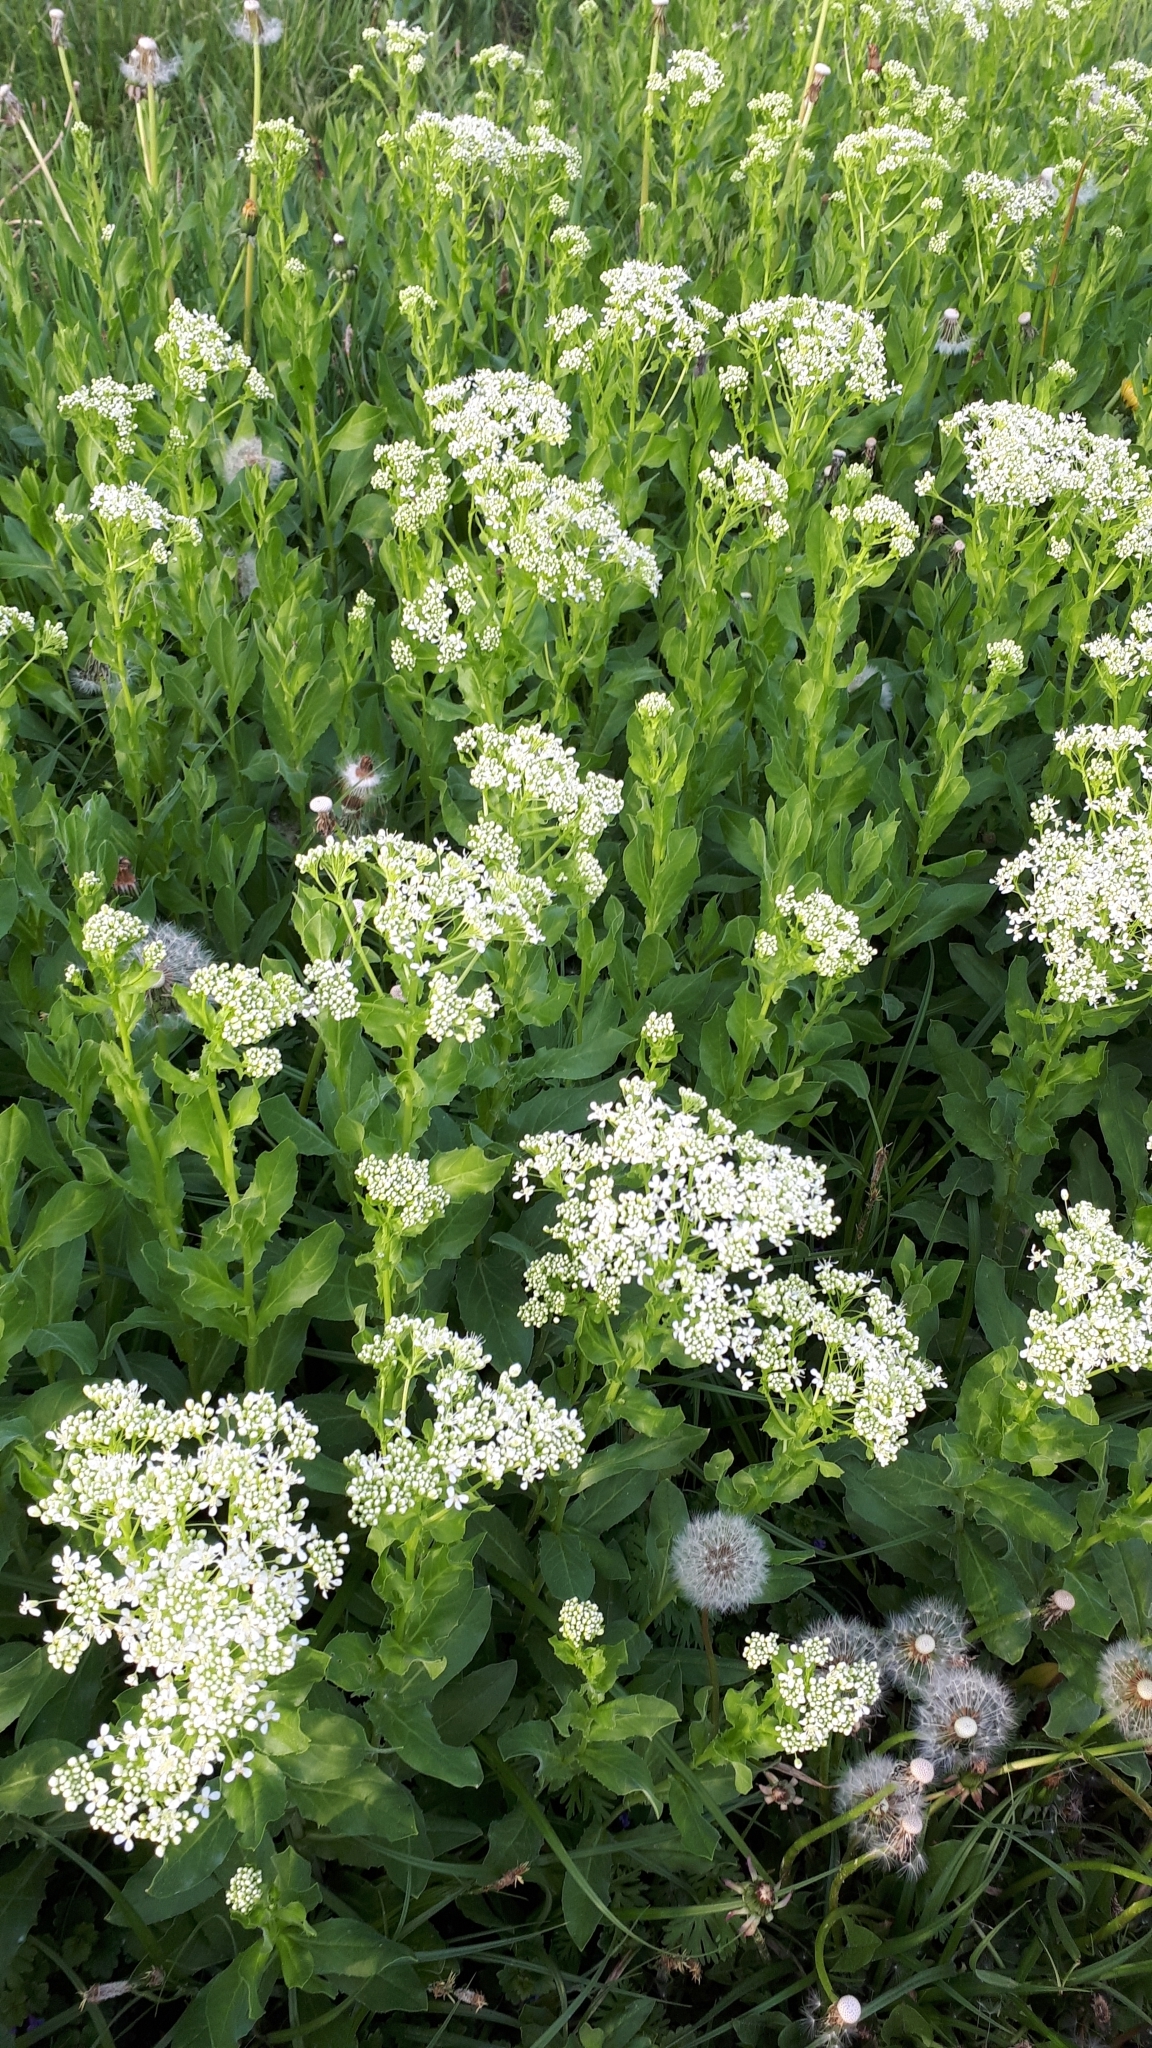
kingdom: Plantae
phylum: Tracheophyta
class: Magnoliopsida
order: Brassicales
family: Brassicaceae
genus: Lepidium
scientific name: Lepidium draba
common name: Hoary cress
